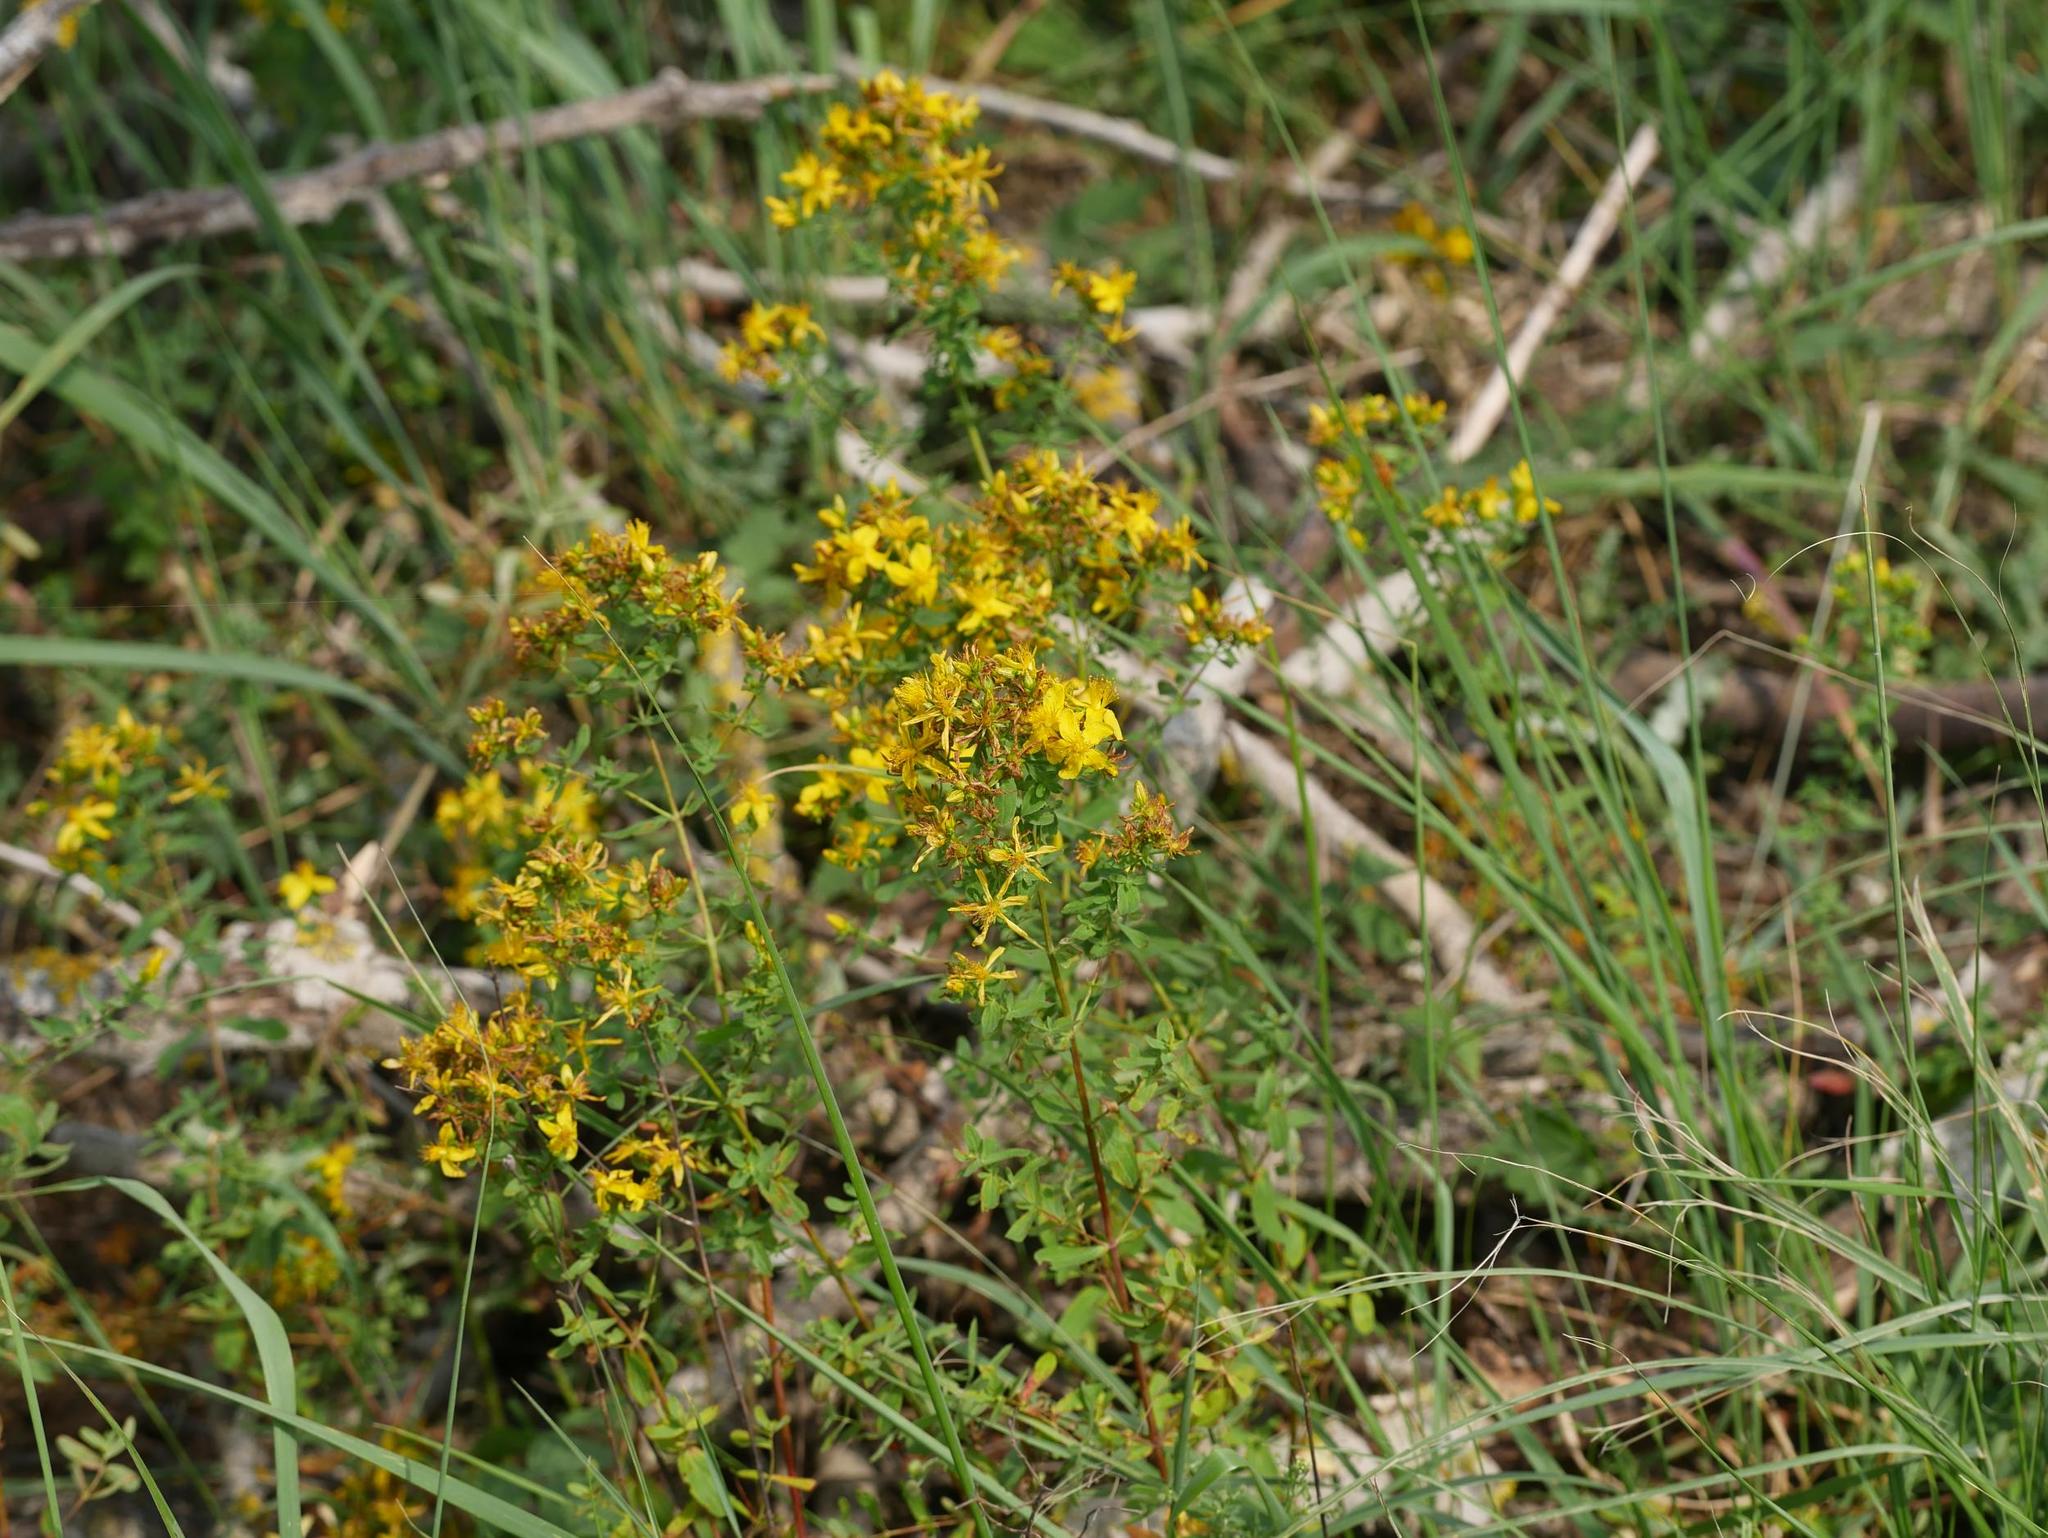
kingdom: Plantae
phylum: Tracheophyta
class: Magnoliopsida
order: Malpighiales
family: Hypericaceae
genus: Hypericum
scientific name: Hypericum perforatum
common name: Common st. johnswort
